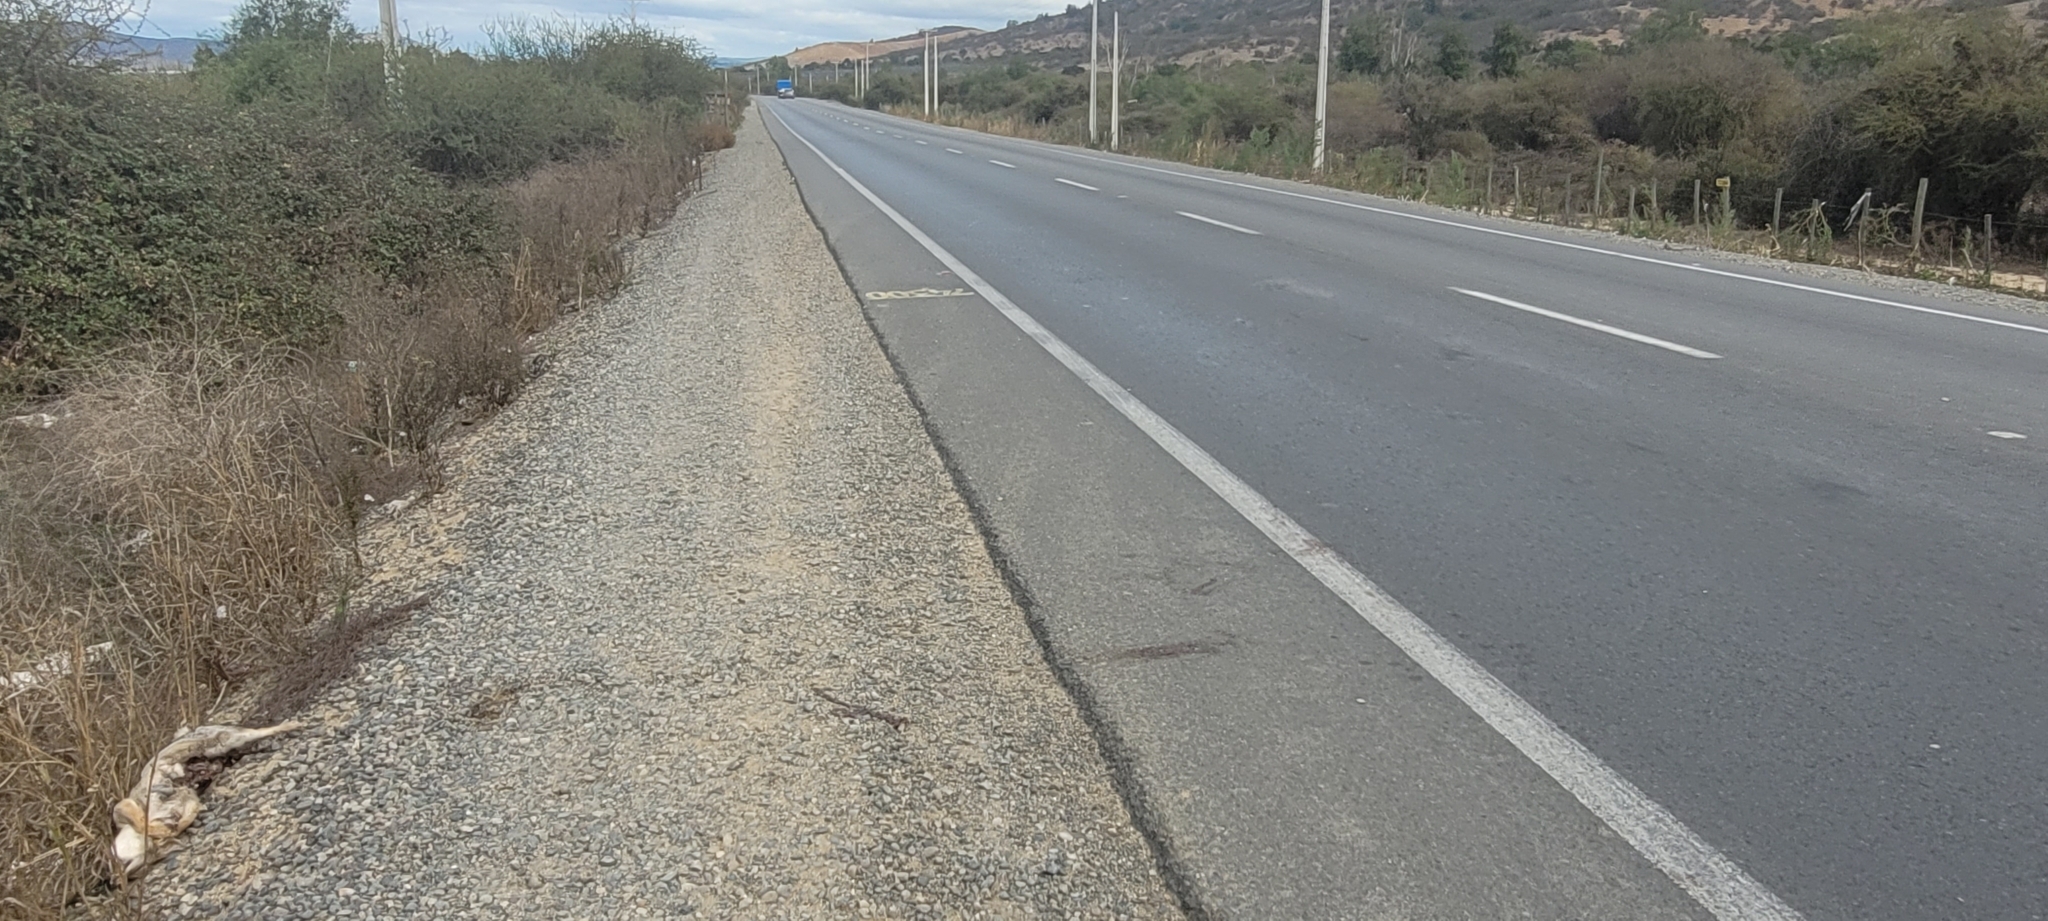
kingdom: Animalia
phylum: Chordata
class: Mammalia
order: Carnivora
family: Canidae
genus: Lycalopex
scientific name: Lycalopex gymnocercus
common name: Pampas fox
